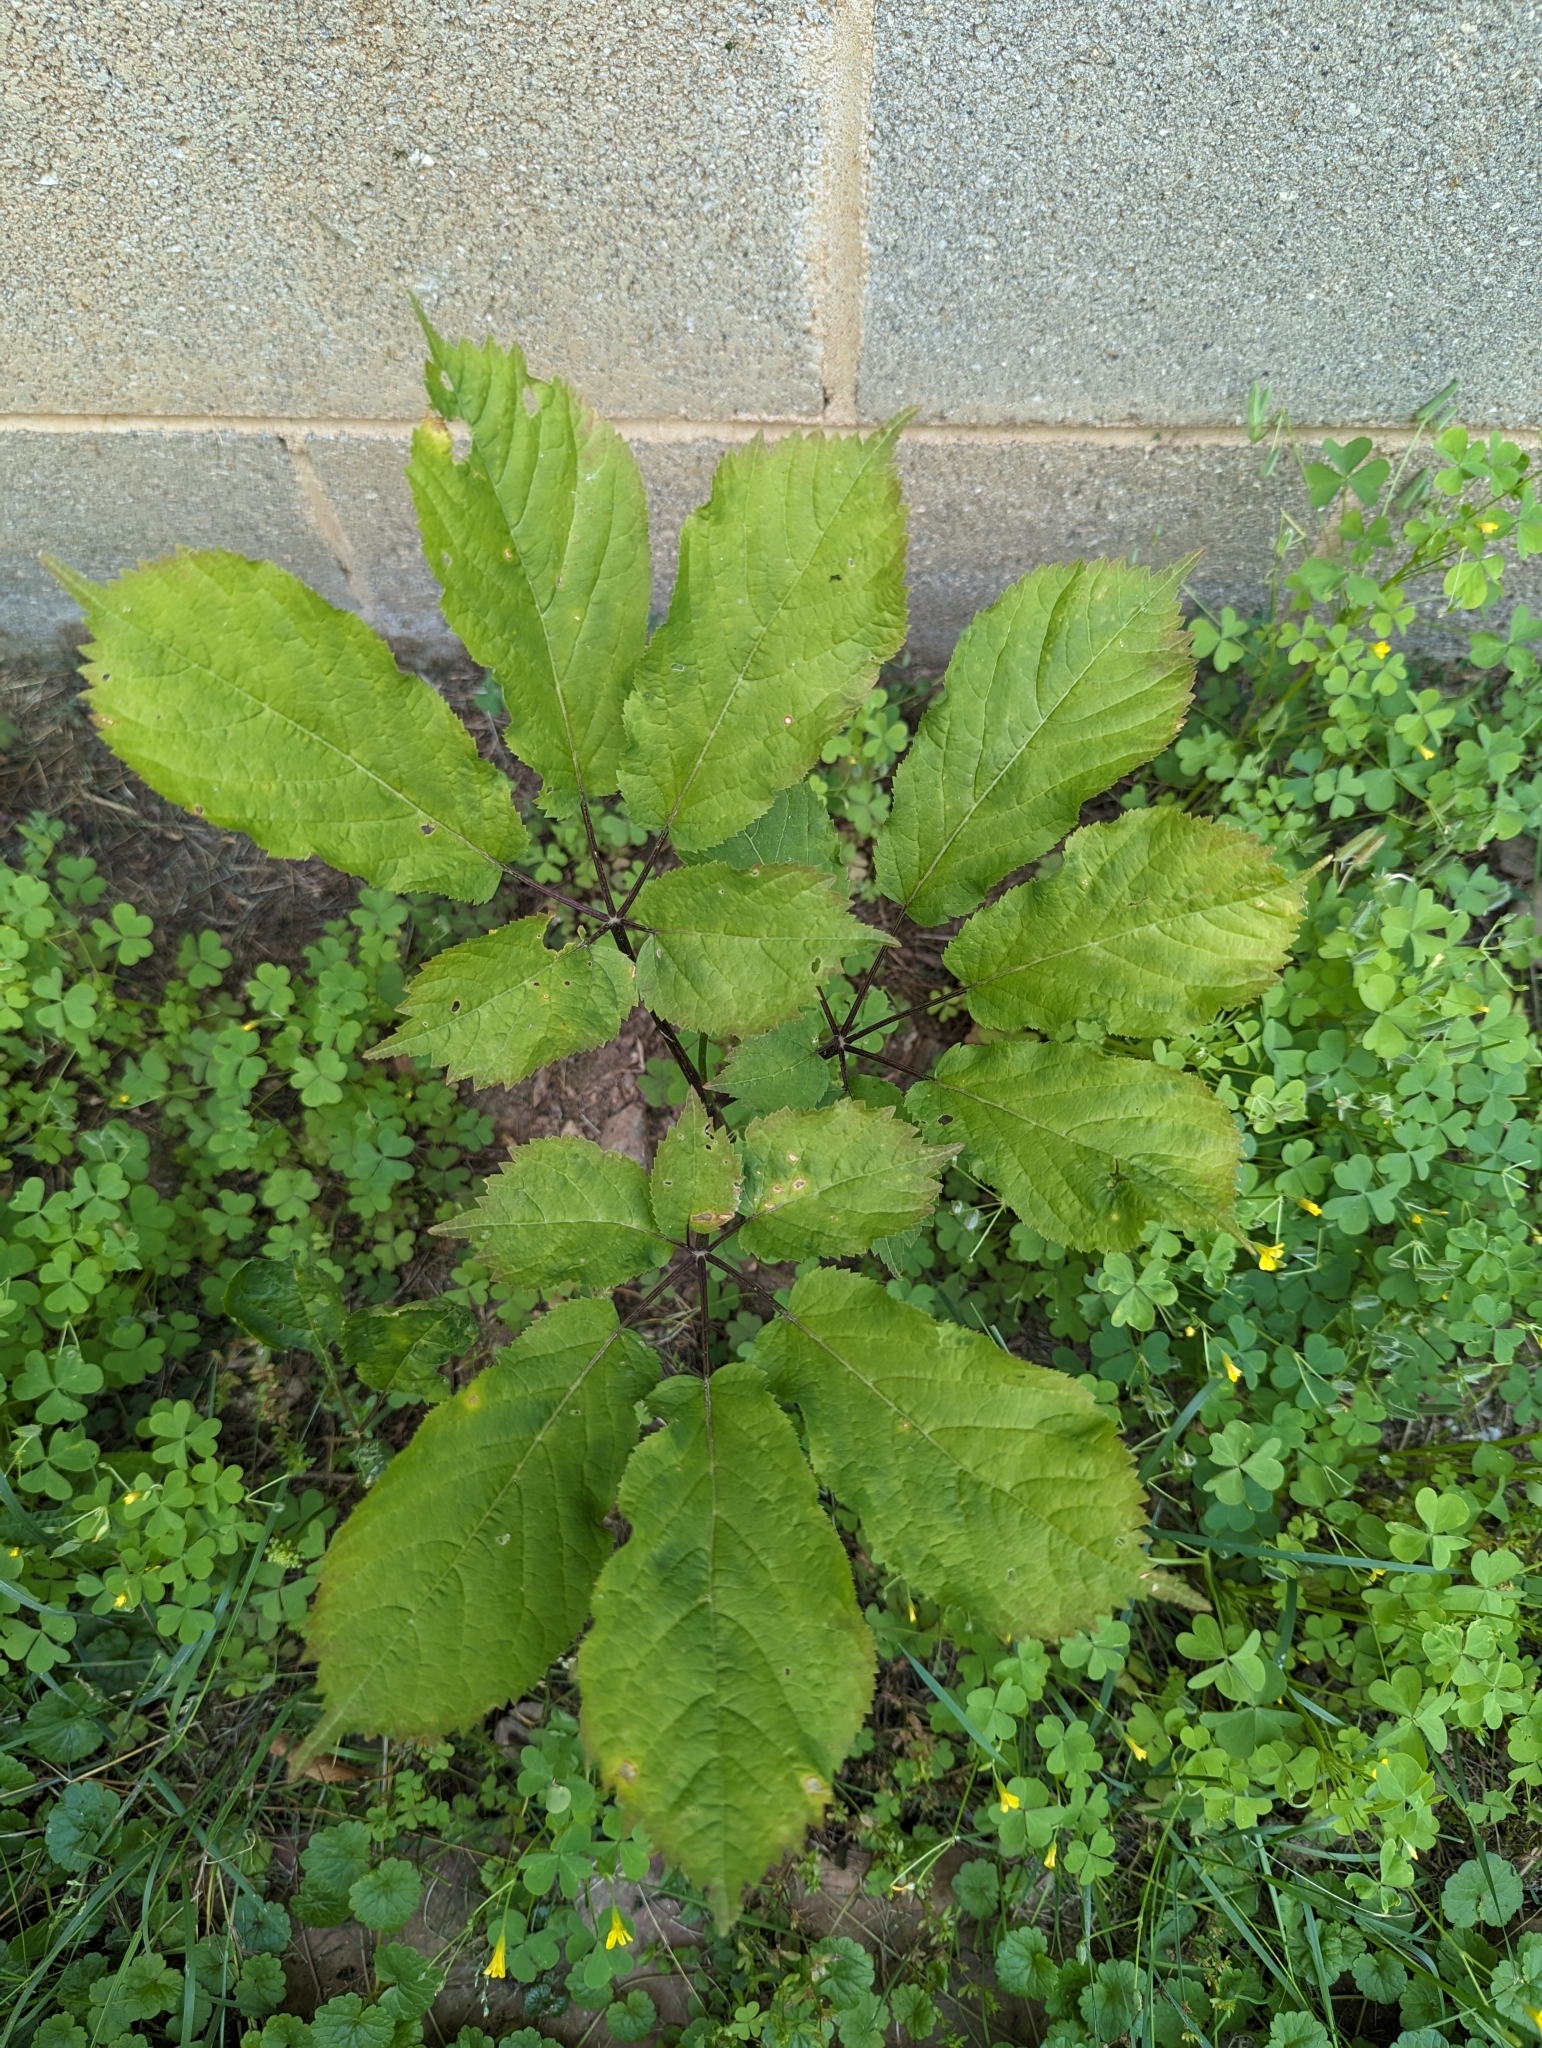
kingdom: Plantae
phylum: Tracheophyta
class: Magnoliopsida
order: Apiales
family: Araliaceae
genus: Panax
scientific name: Panax quinquefolius
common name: American ginseng
